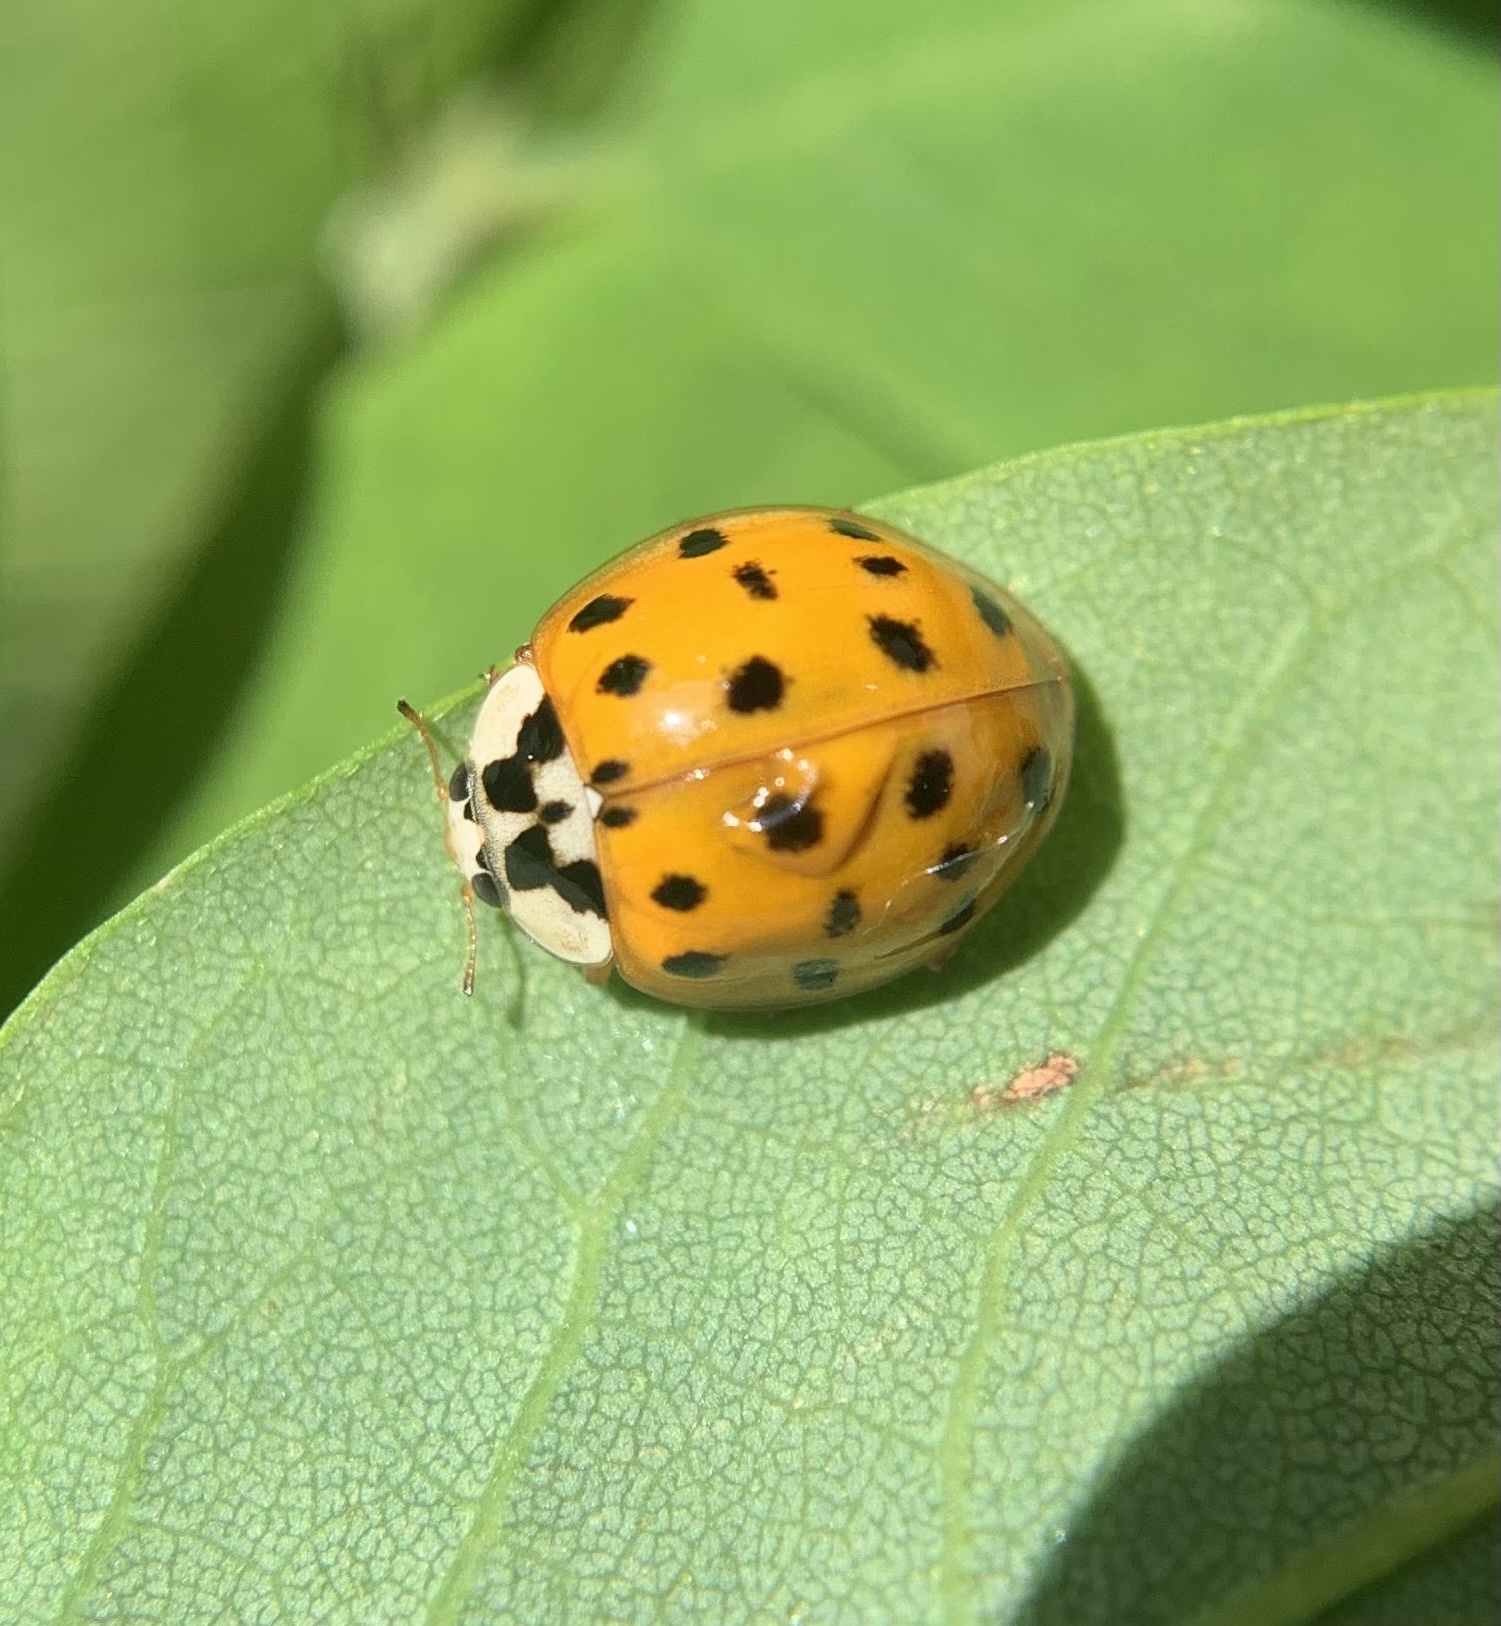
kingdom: Animalia
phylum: Arthropoda
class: Insecta
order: Coleoptera
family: Coccinellidae
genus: Harmonia
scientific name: Harmonia axyridis
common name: Harlequin ladybird
